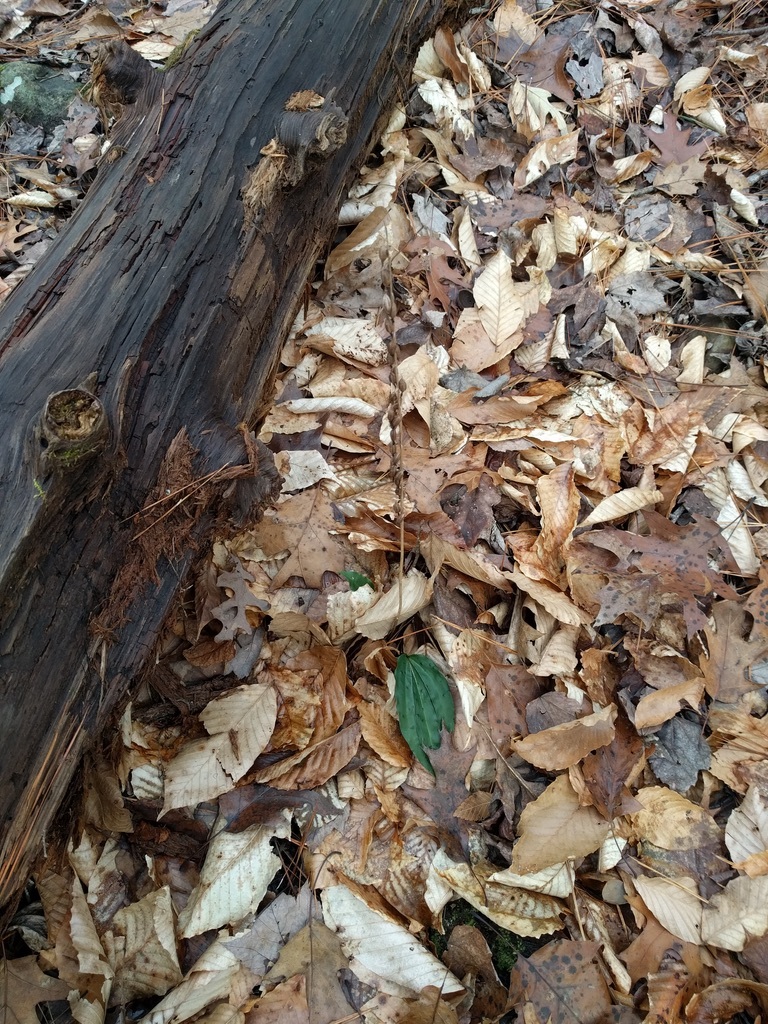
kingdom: Plantae
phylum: Tracheophyta
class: Liliopsida
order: Asparagales
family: Orchidaceae
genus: Tipularia
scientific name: Tipularia discolor
